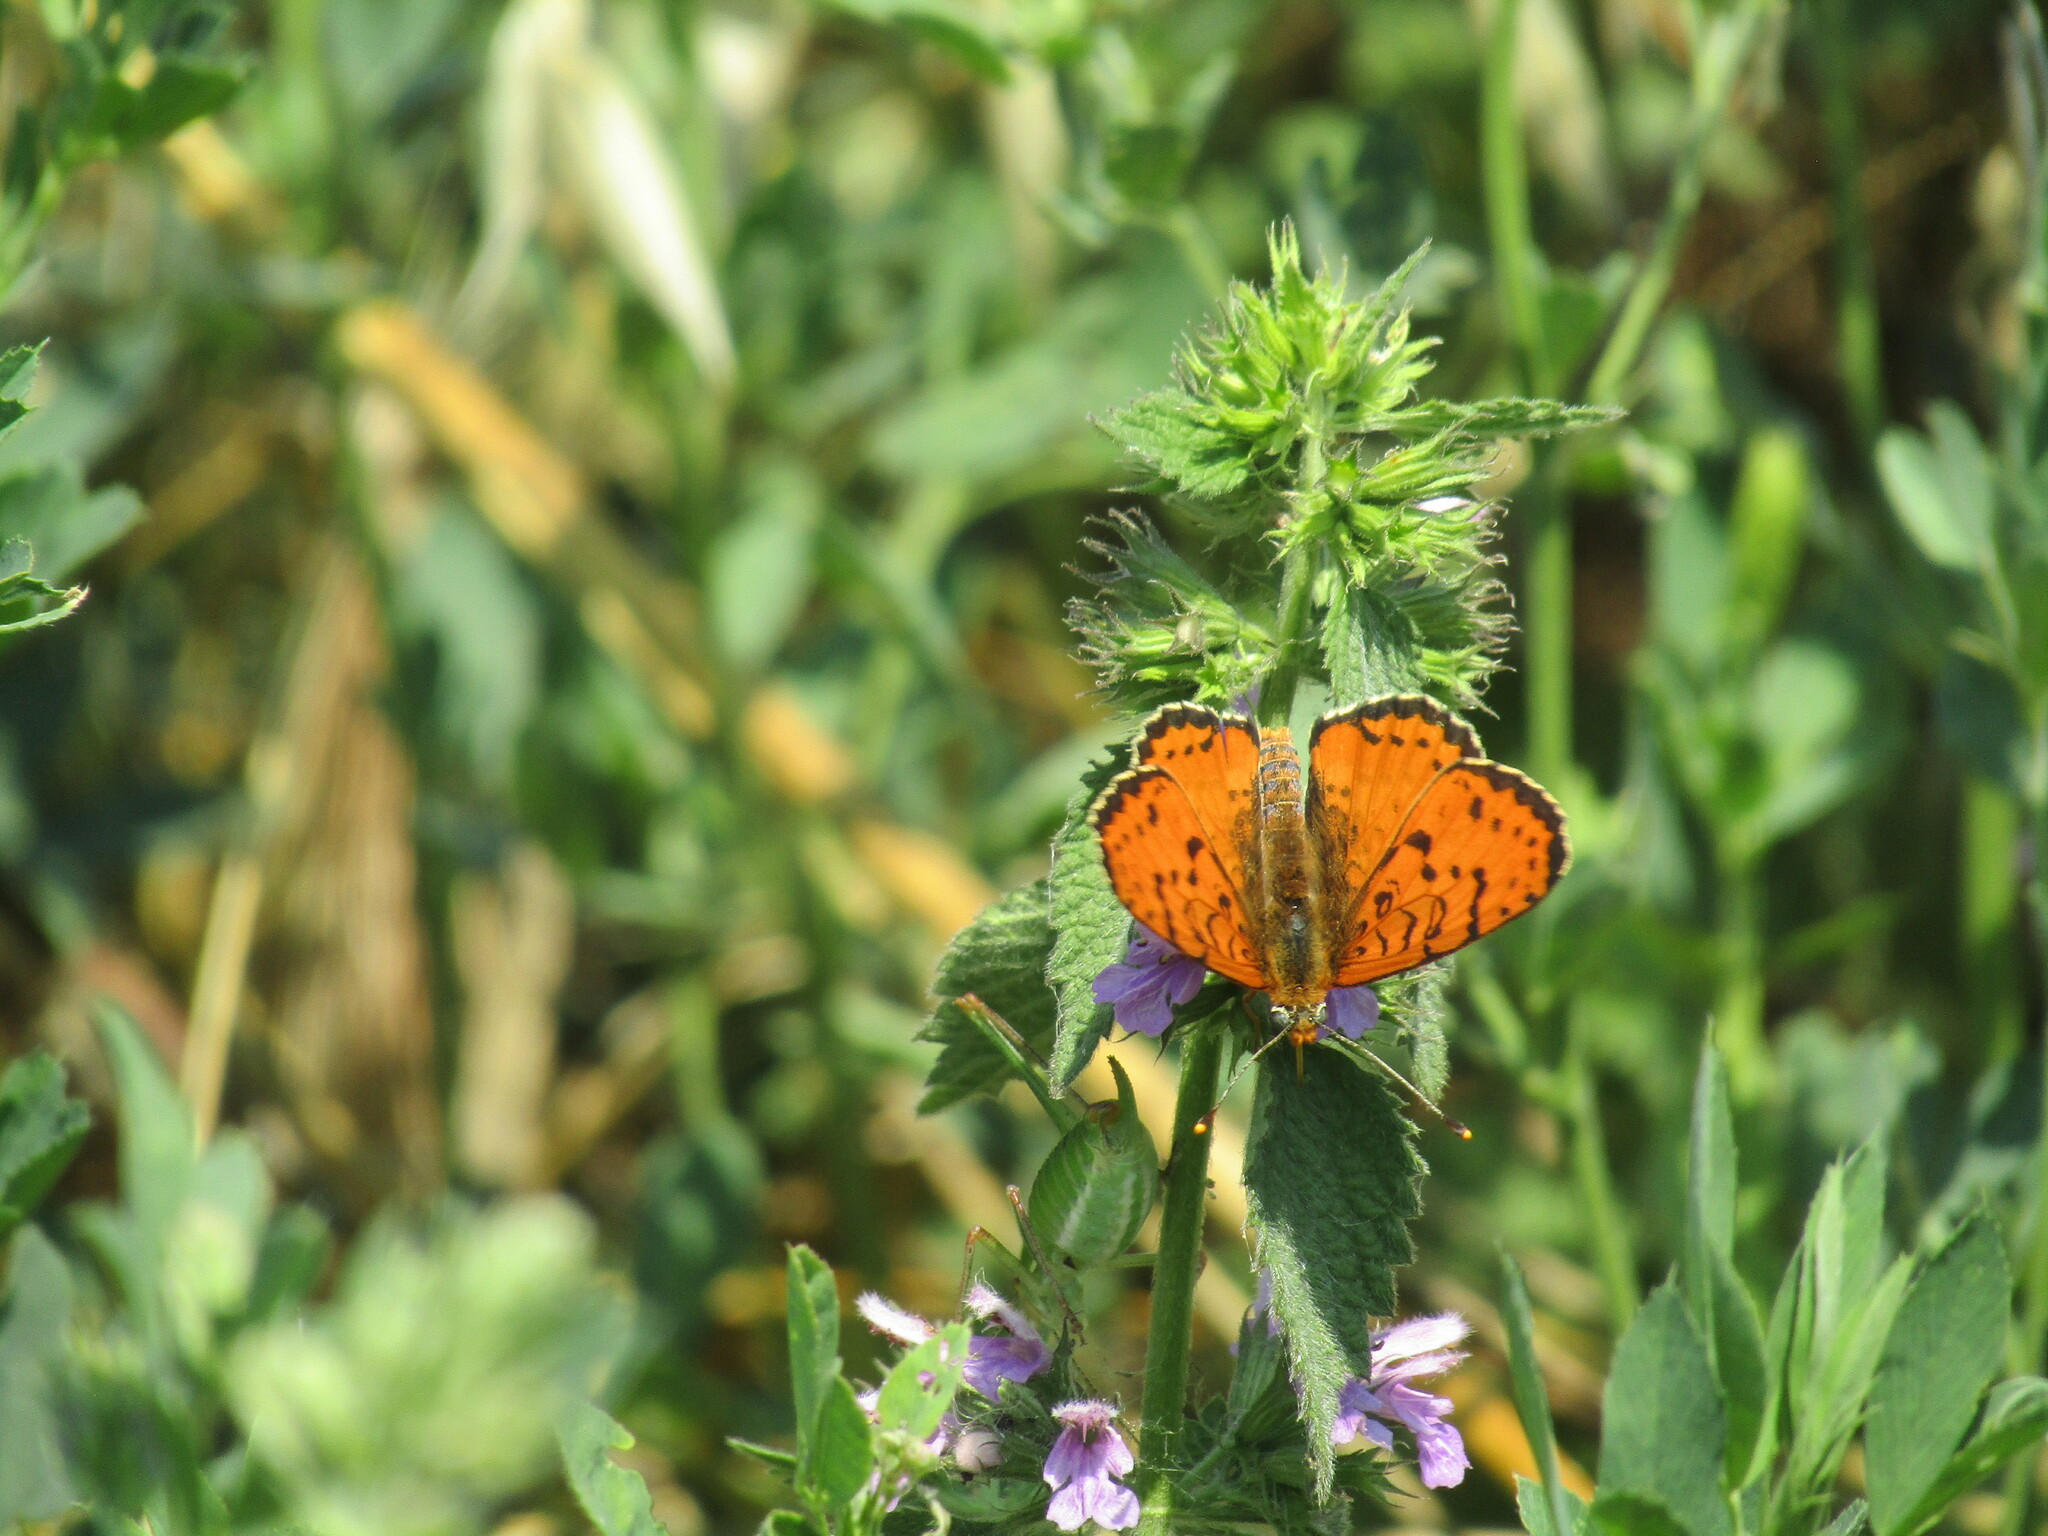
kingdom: Animalia
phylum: Arthropoda
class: Insecta
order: Lepidoptera
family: Nymphalidae
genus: Melitaea
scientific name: Melitaea didyma
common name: Spotted fritillary
